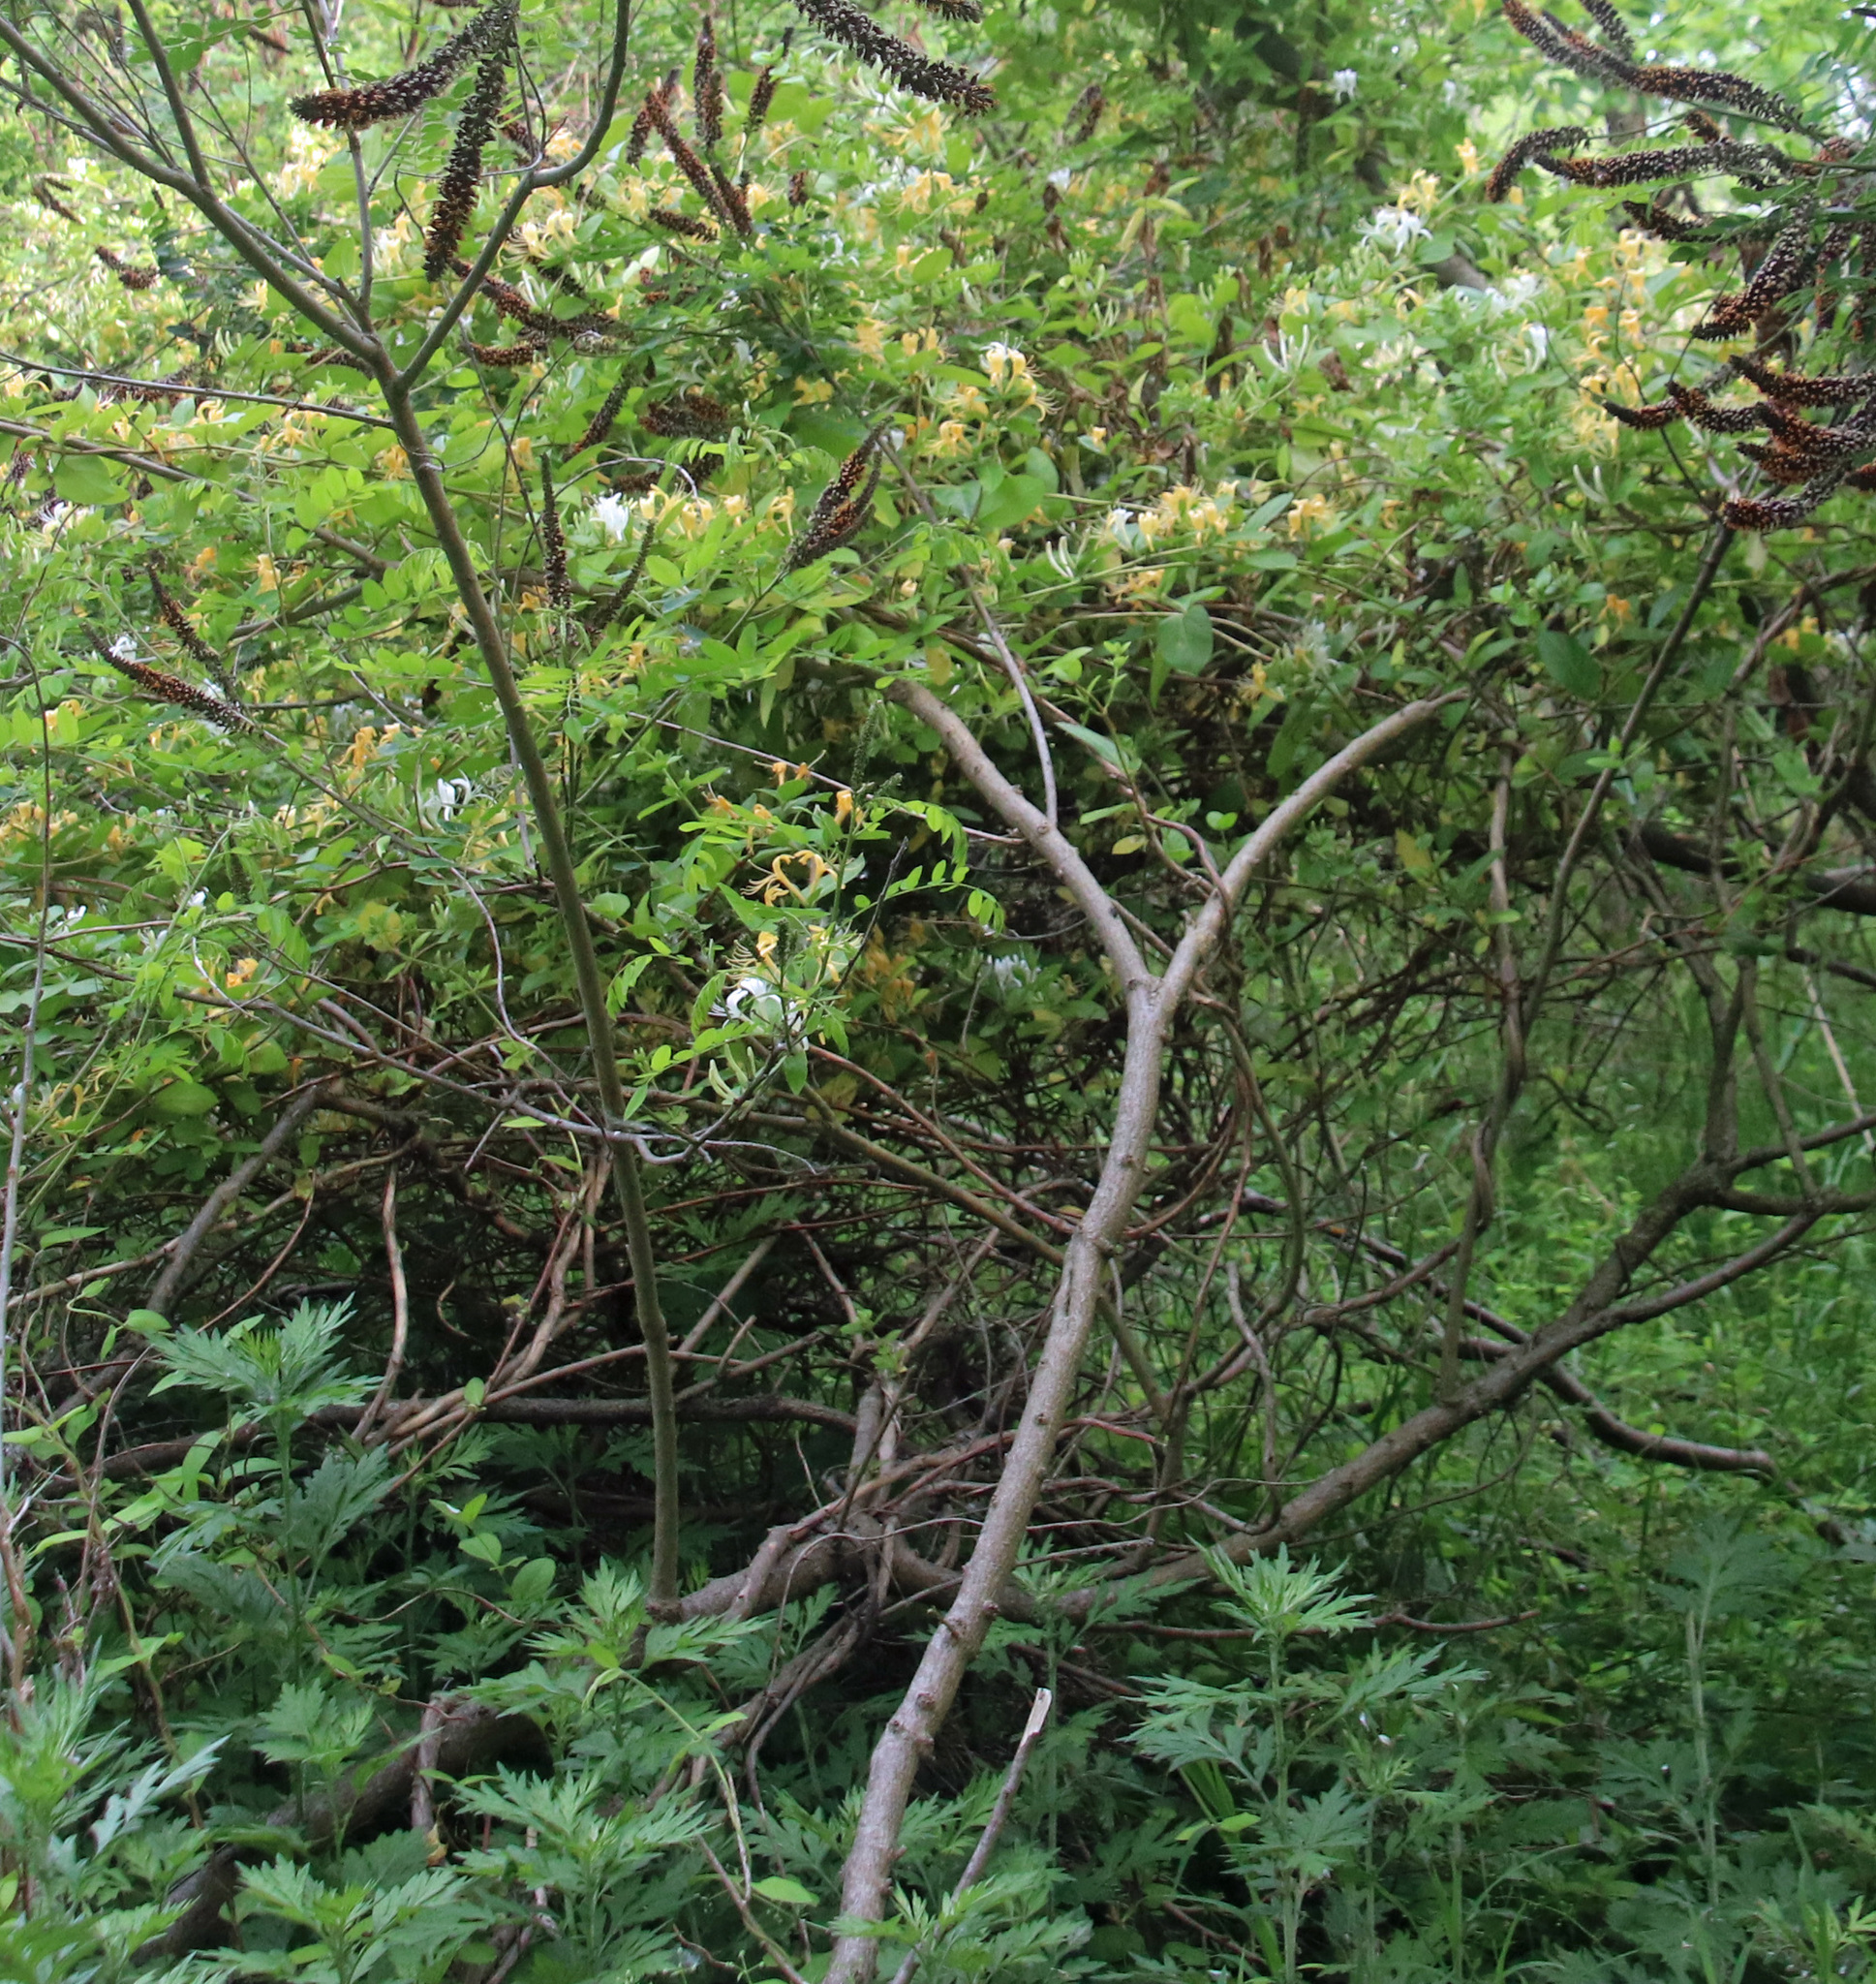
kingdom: Plantae
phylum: Tracheophyta
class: Magnoliopsida
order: Dipsacales
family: Caprifoliaceae
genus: Lonicera
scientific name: Lonicera japonica
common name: Japanese honeysuckle
